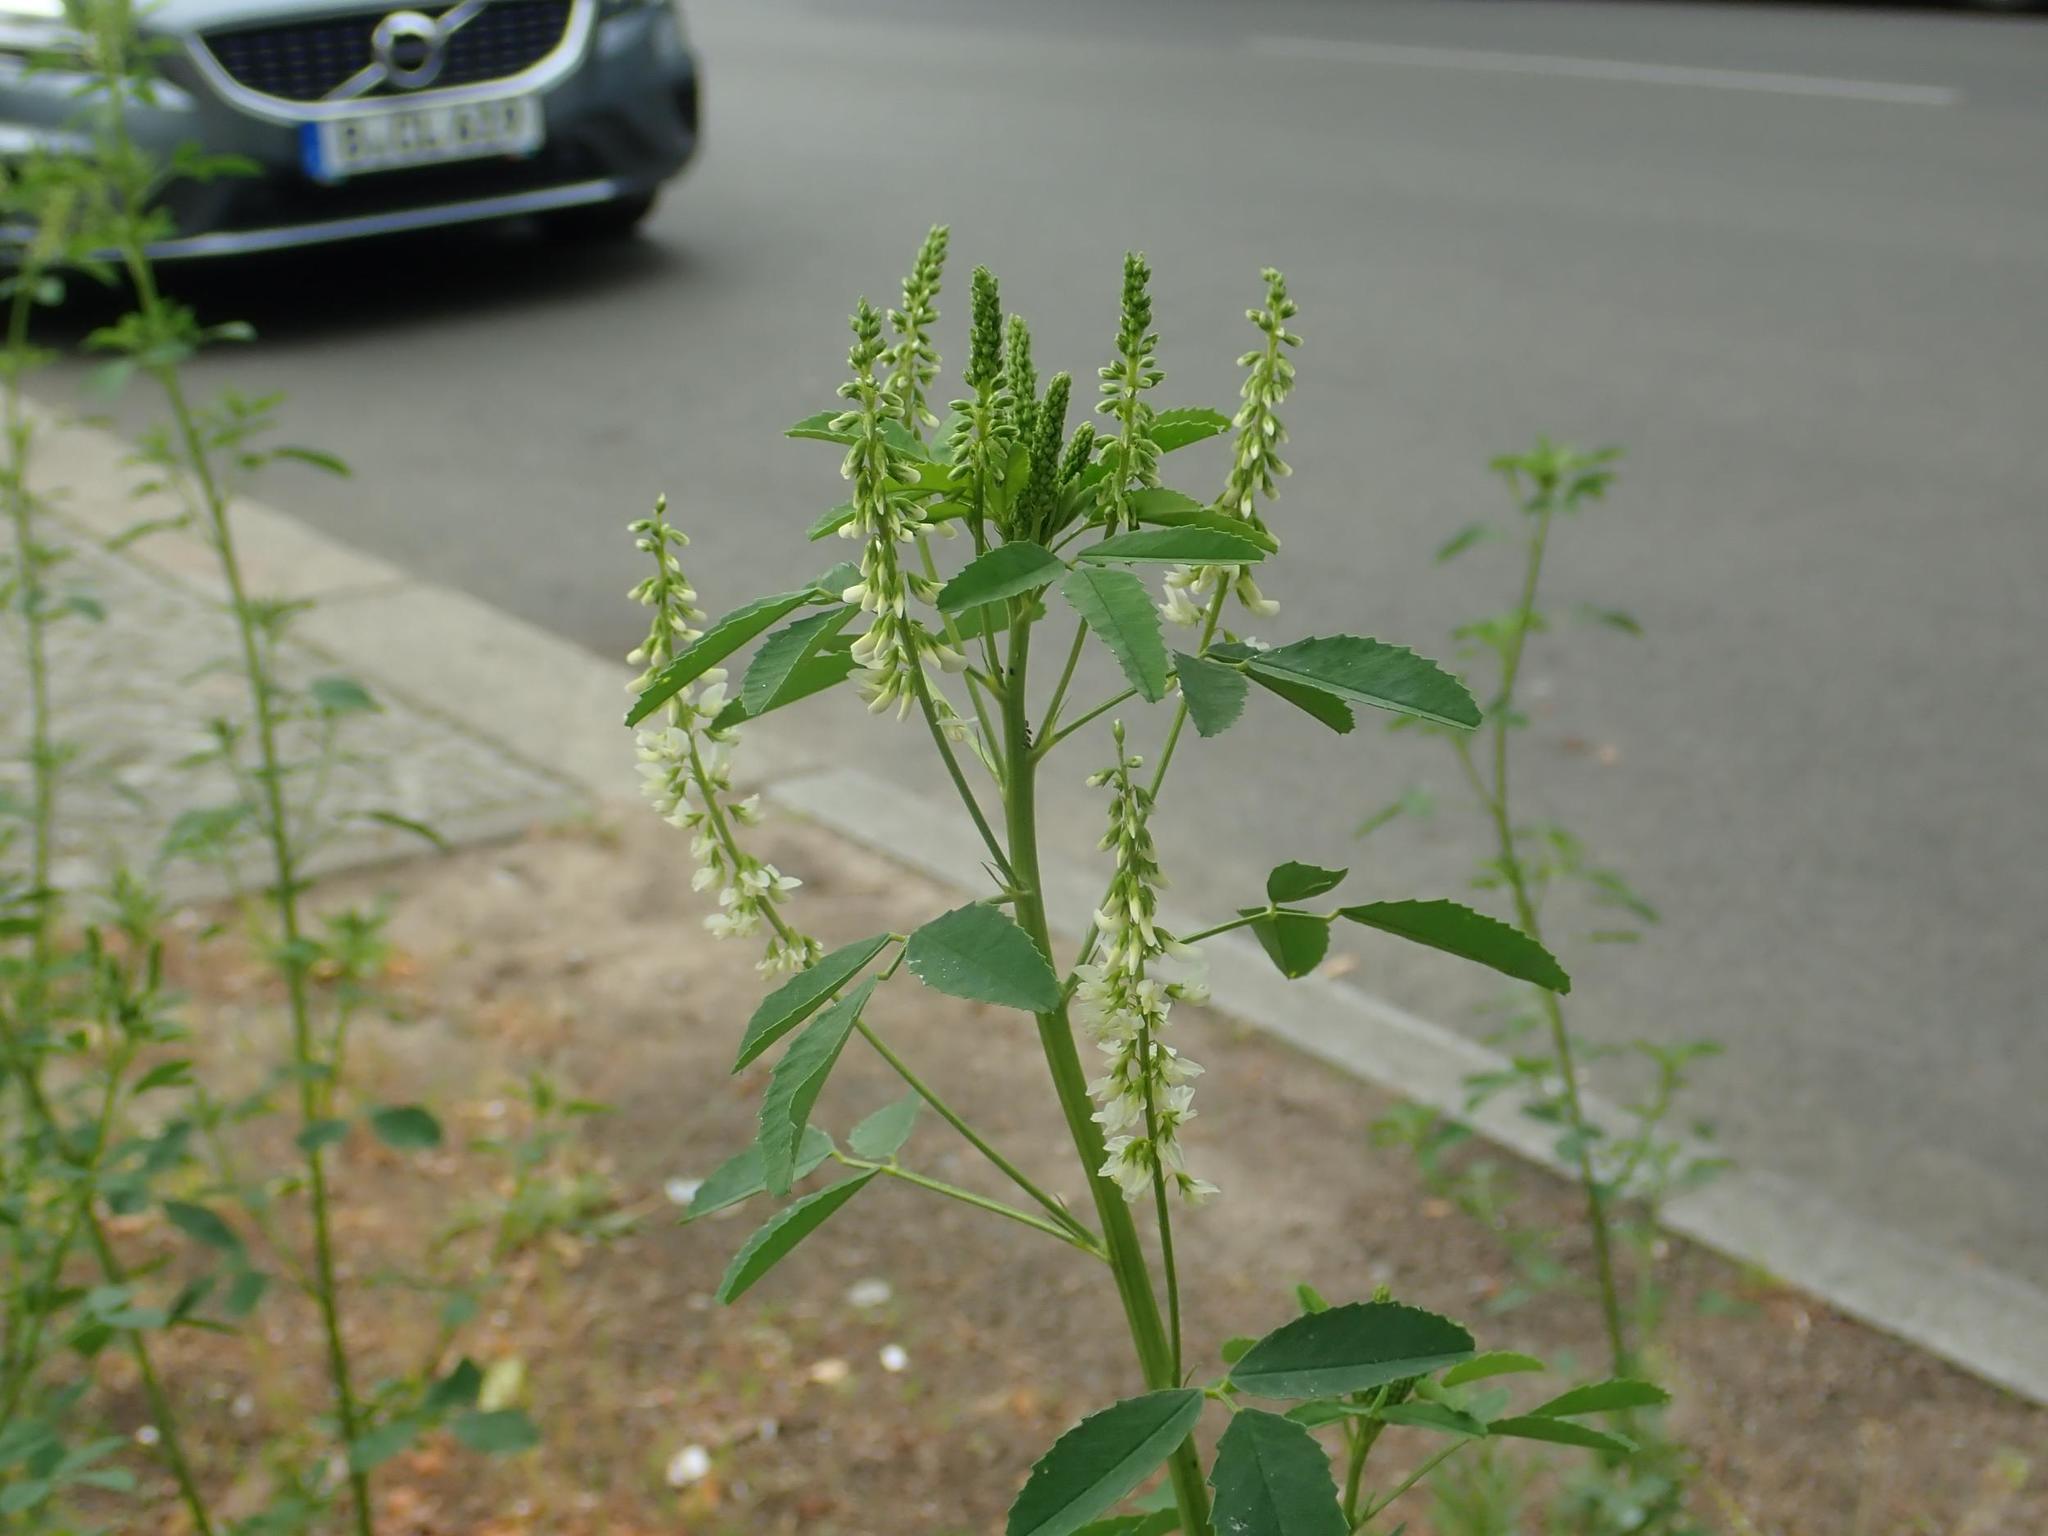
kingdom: Plantae
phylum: Tracheophyta
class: Magnoliopsida
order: Fabales
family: Fabaceae
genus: Melilotus
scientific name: Melilotus albus
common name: White melilot
